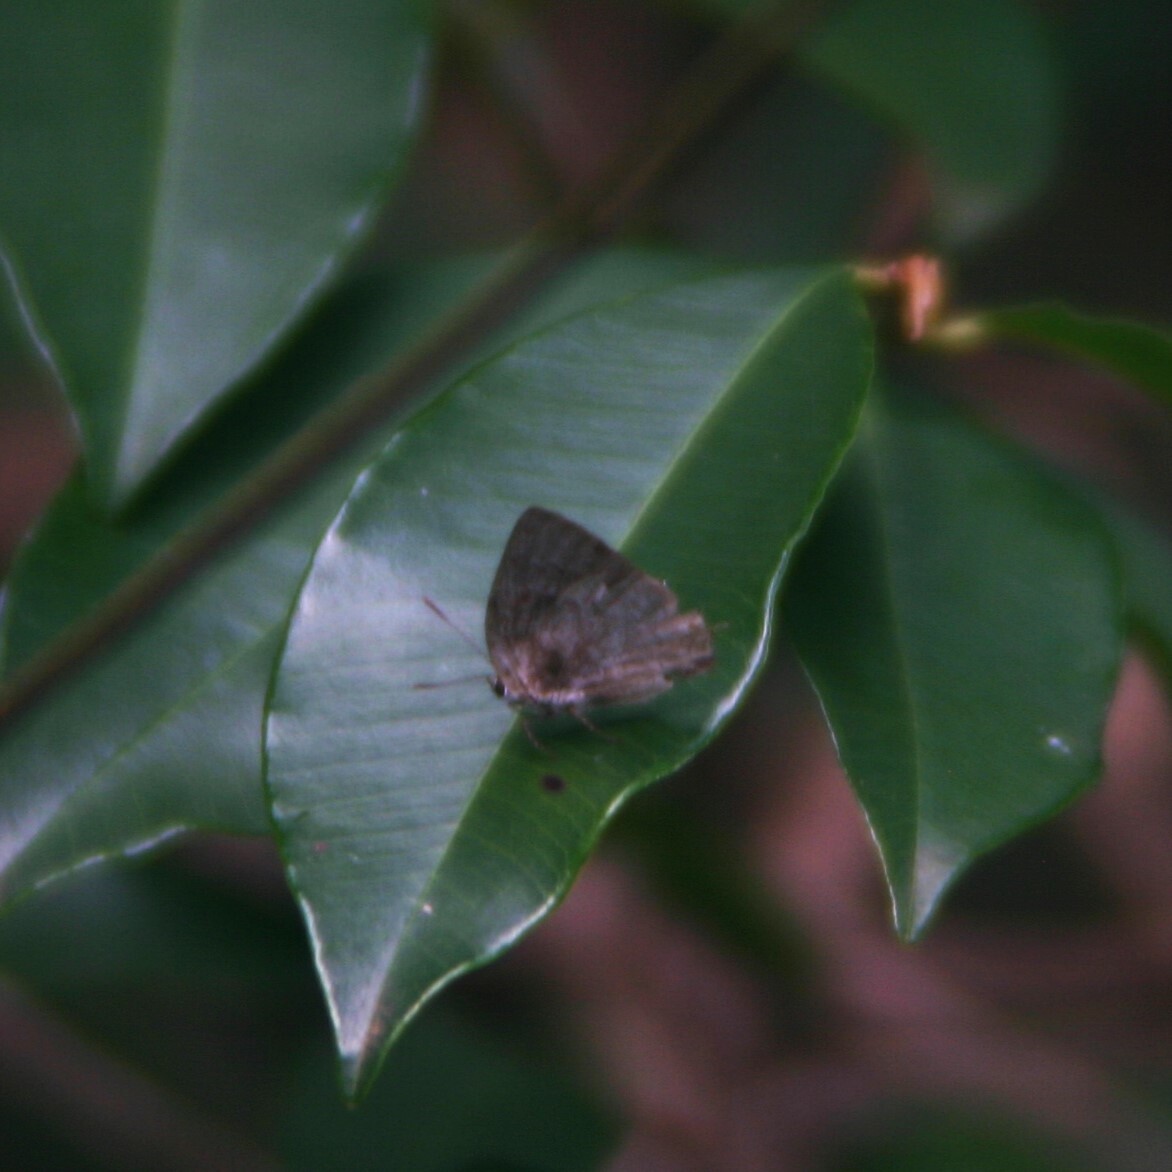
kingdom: Animalia
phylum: Arthropoda
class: Insecta
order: Lepidoptera
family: Lycaenidae
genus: Ostrinotes
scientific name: Ostrinotes
